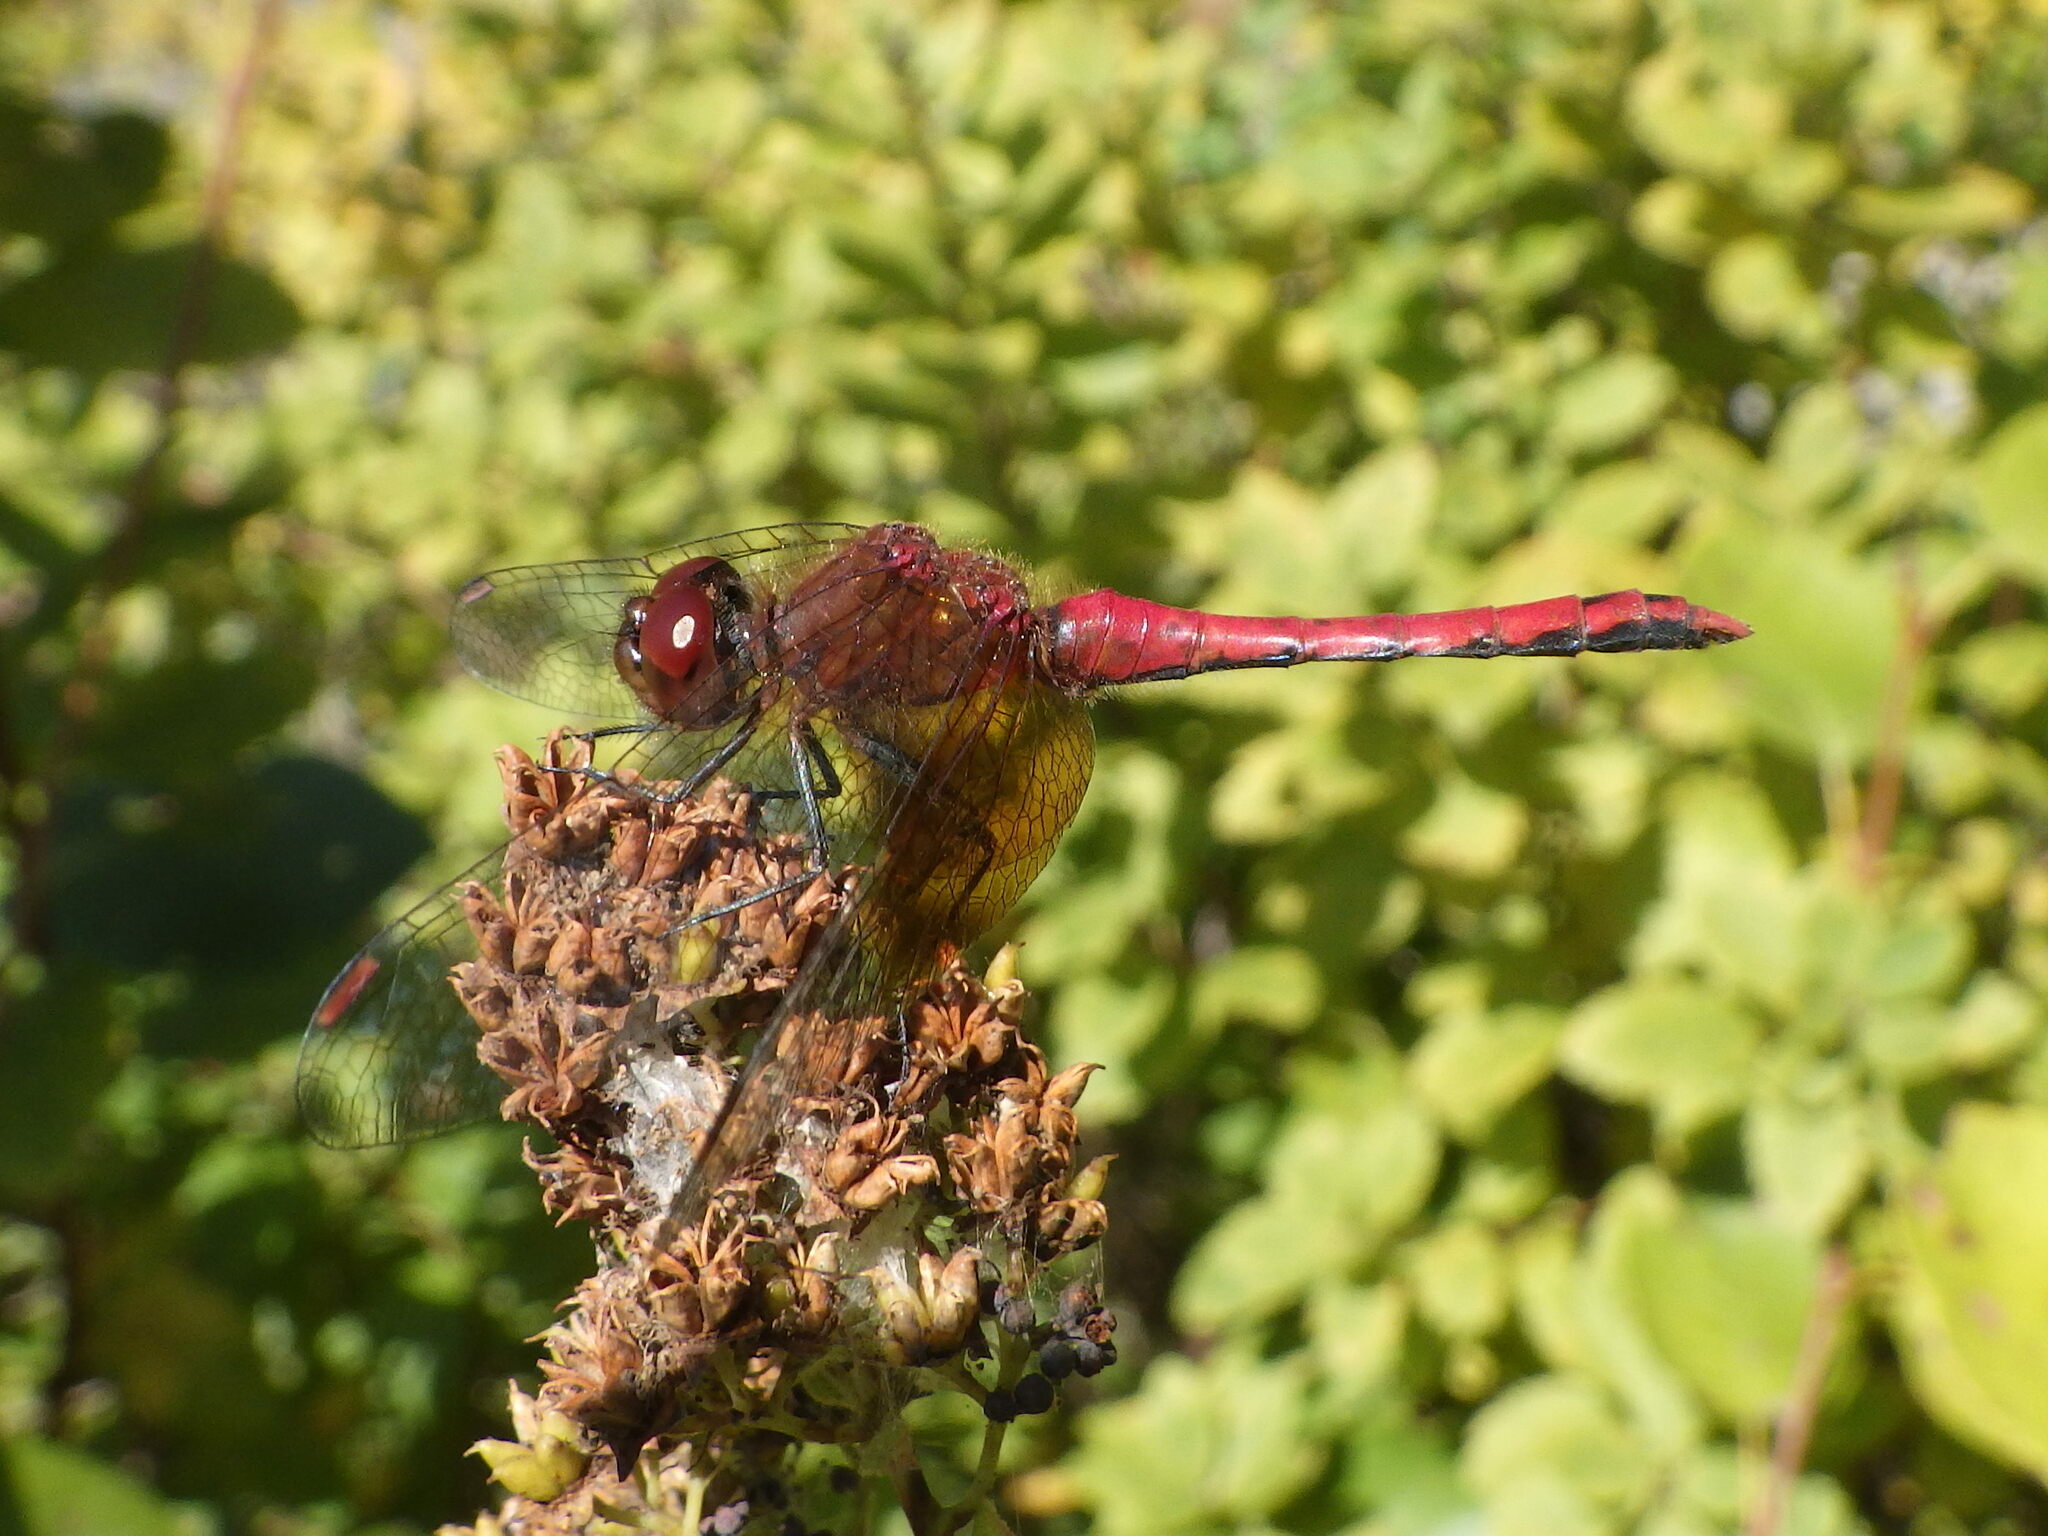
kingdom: Animalia
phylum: Arthropoda
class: Insecta
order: Odonata
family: Libellulidae
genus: Sympetrum
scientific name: Sympetrum semicinctum
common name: Band-winged meadowhawk
